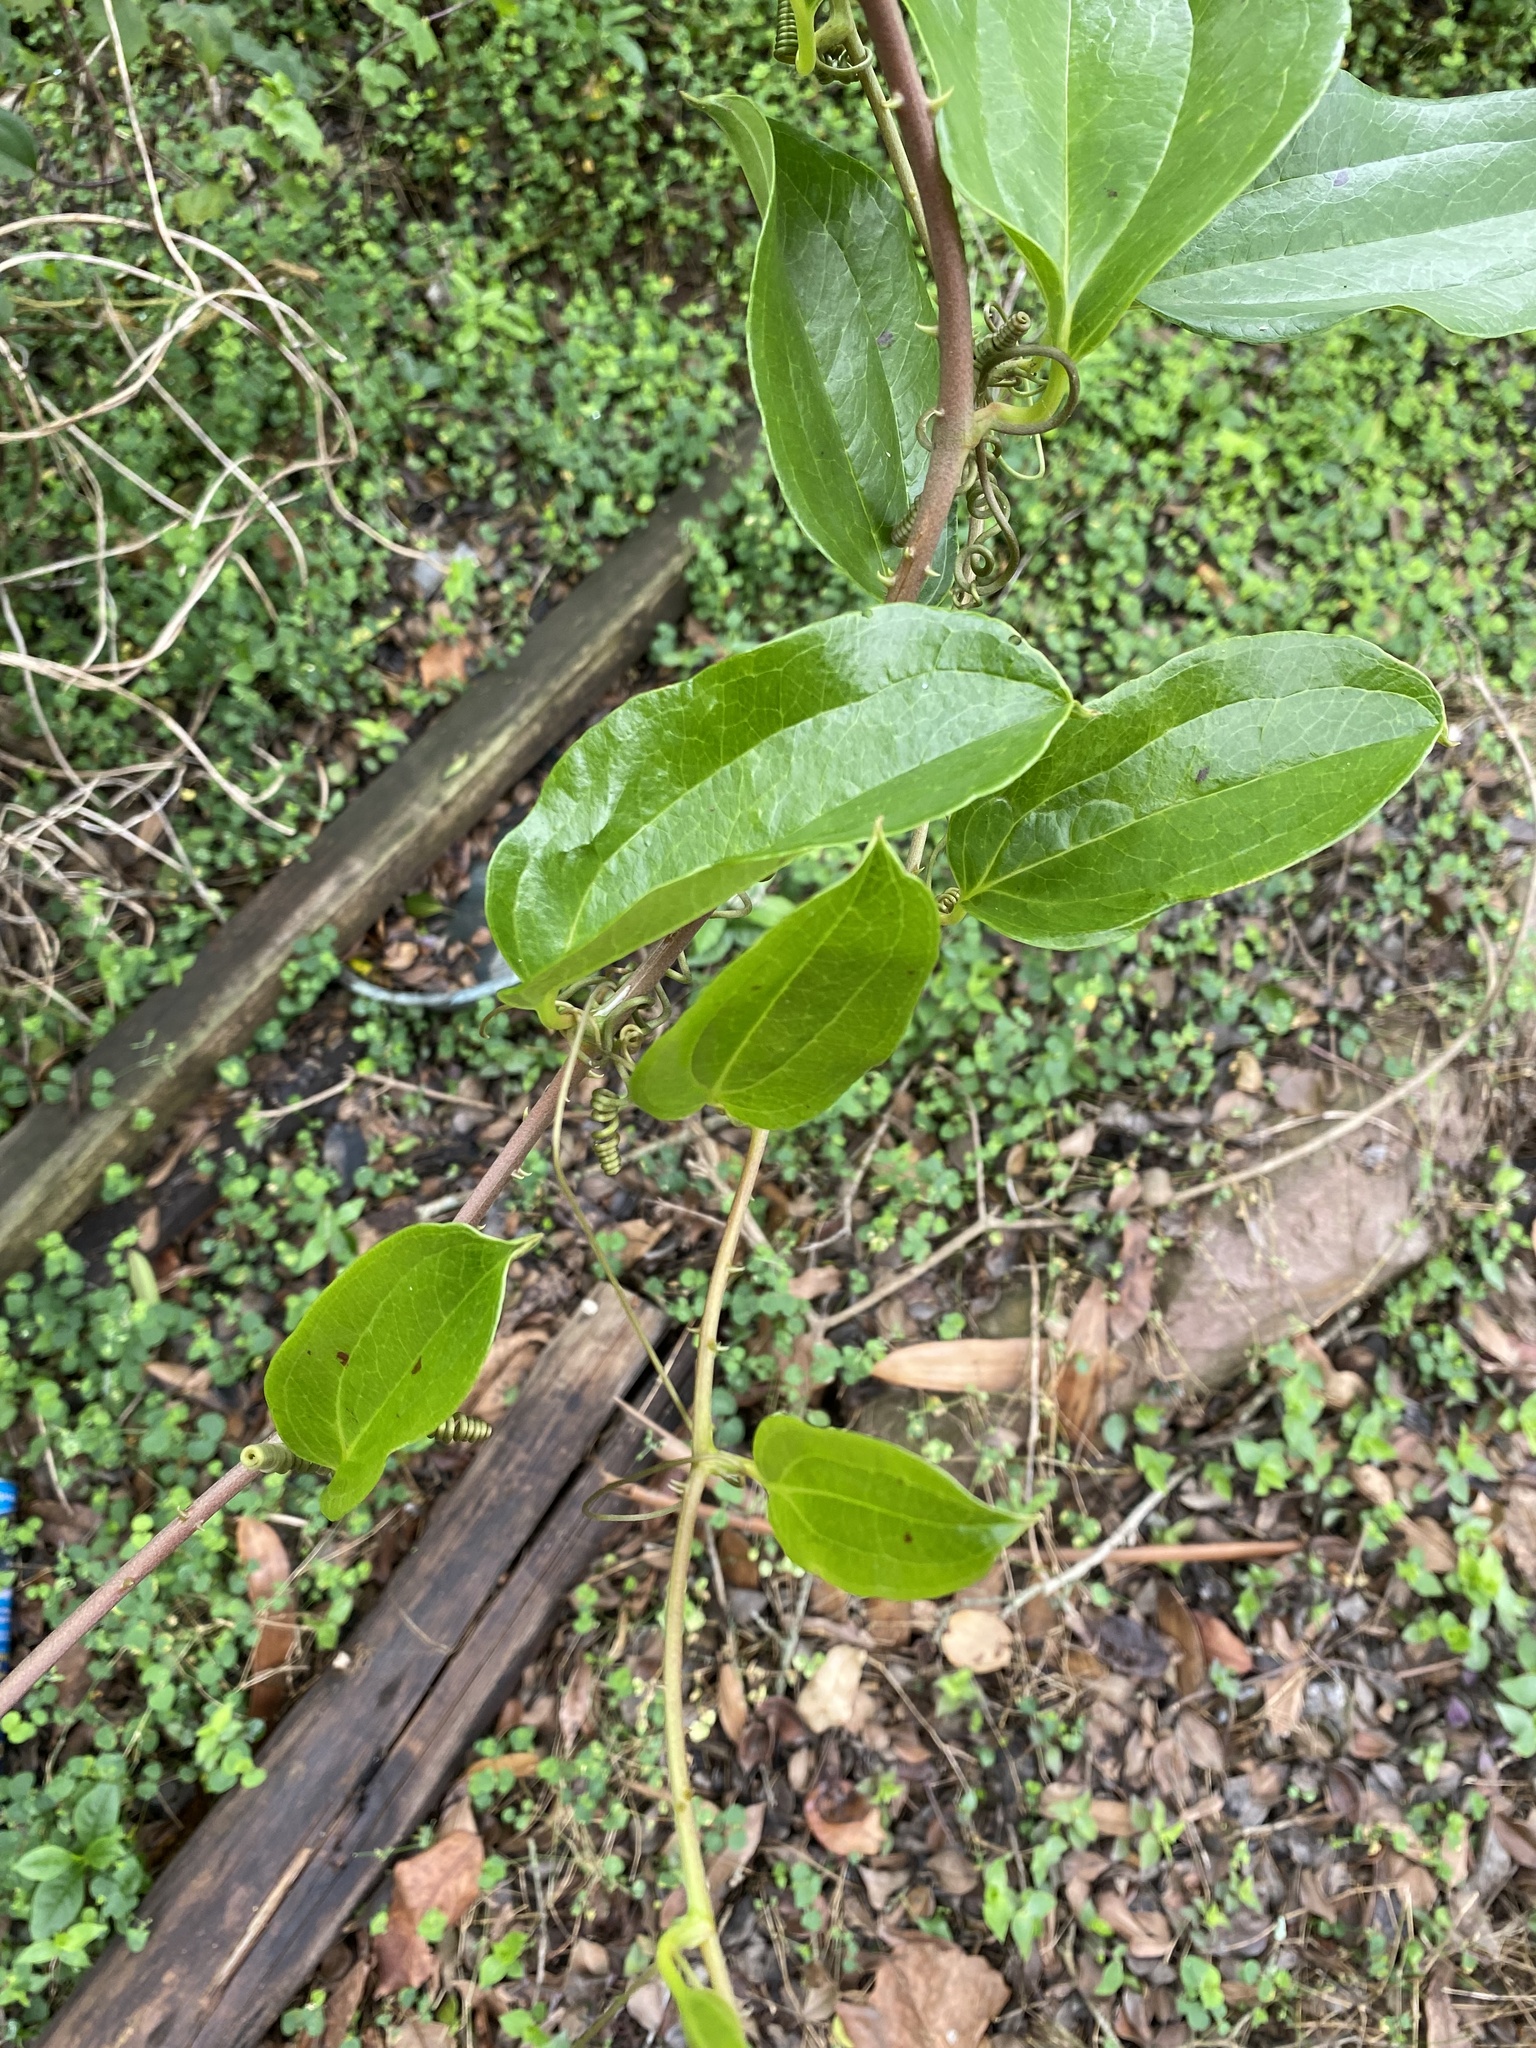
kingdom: Plantae
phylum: Tracheophyta
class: Liliopsida
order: Liliales
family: Smilacaceae
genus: Smilax
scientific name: Smilax anceps
